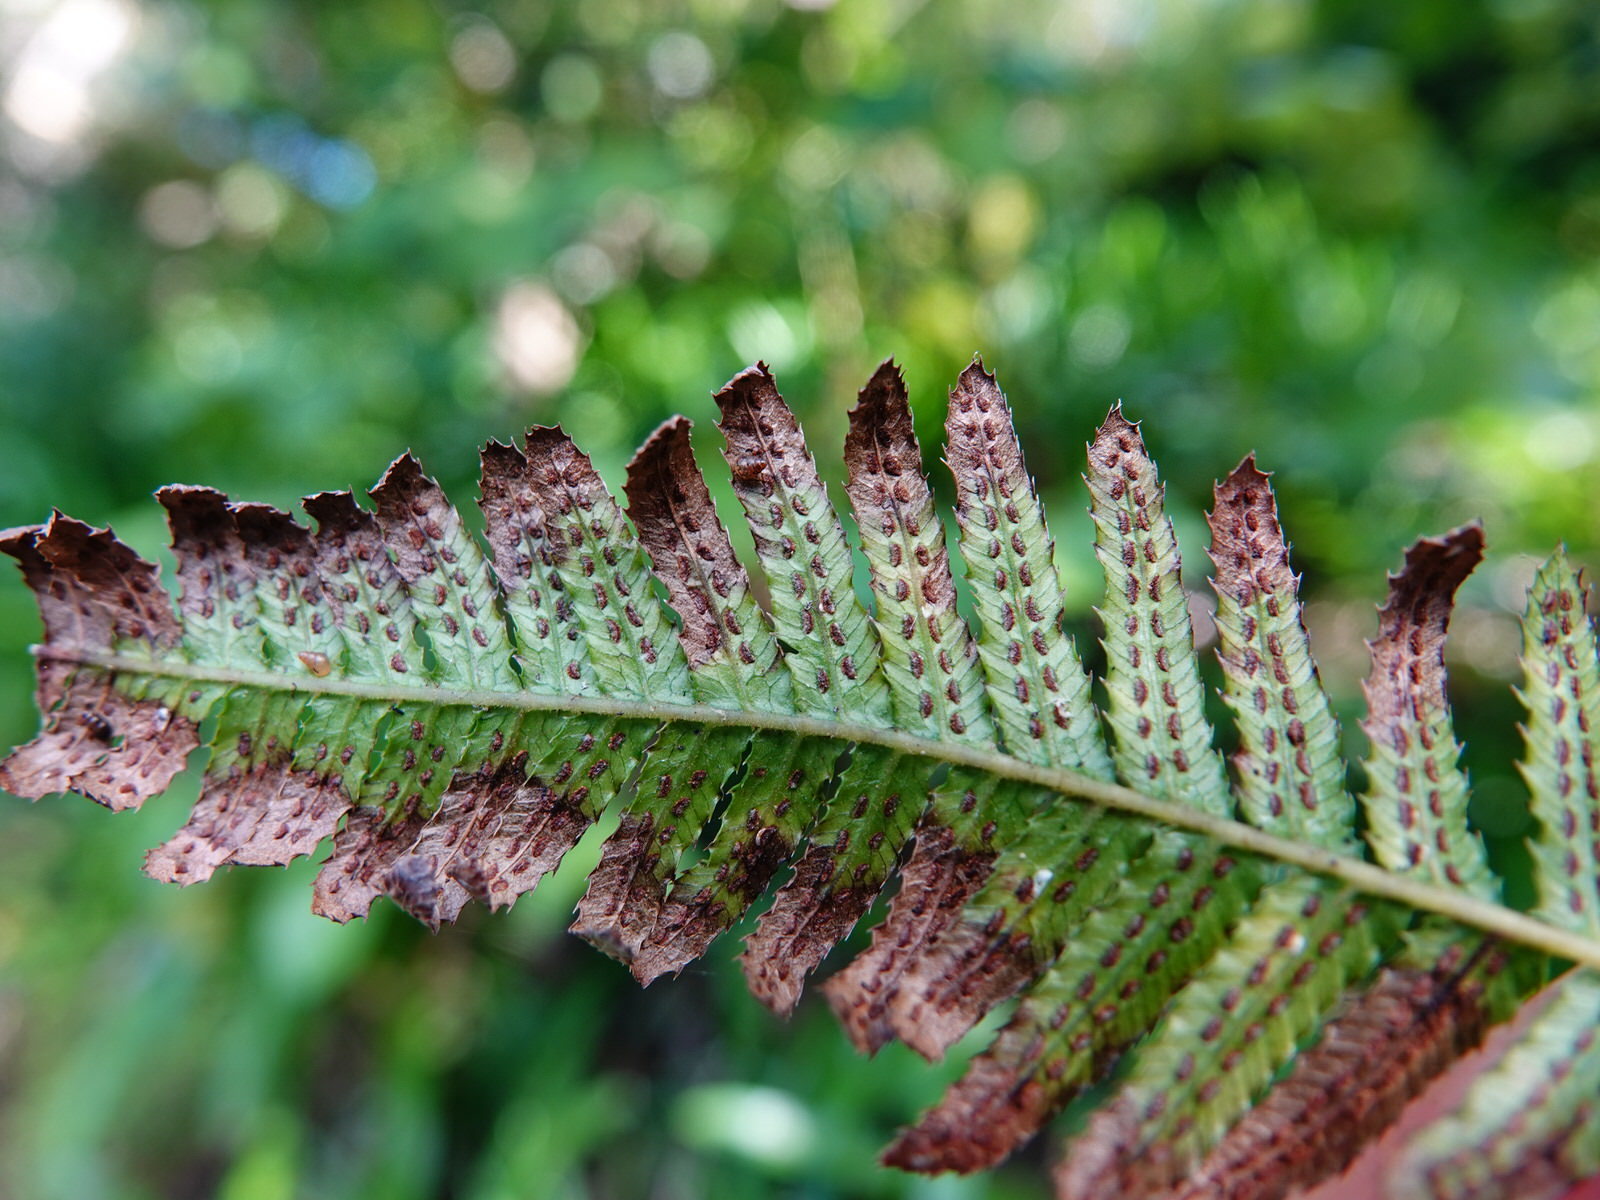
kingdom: Plantae
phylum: Tracheophyta
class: Polypodiopsida
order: Polypodiales
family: Blechnaceae
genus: Doodia
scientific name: Doodia australis
